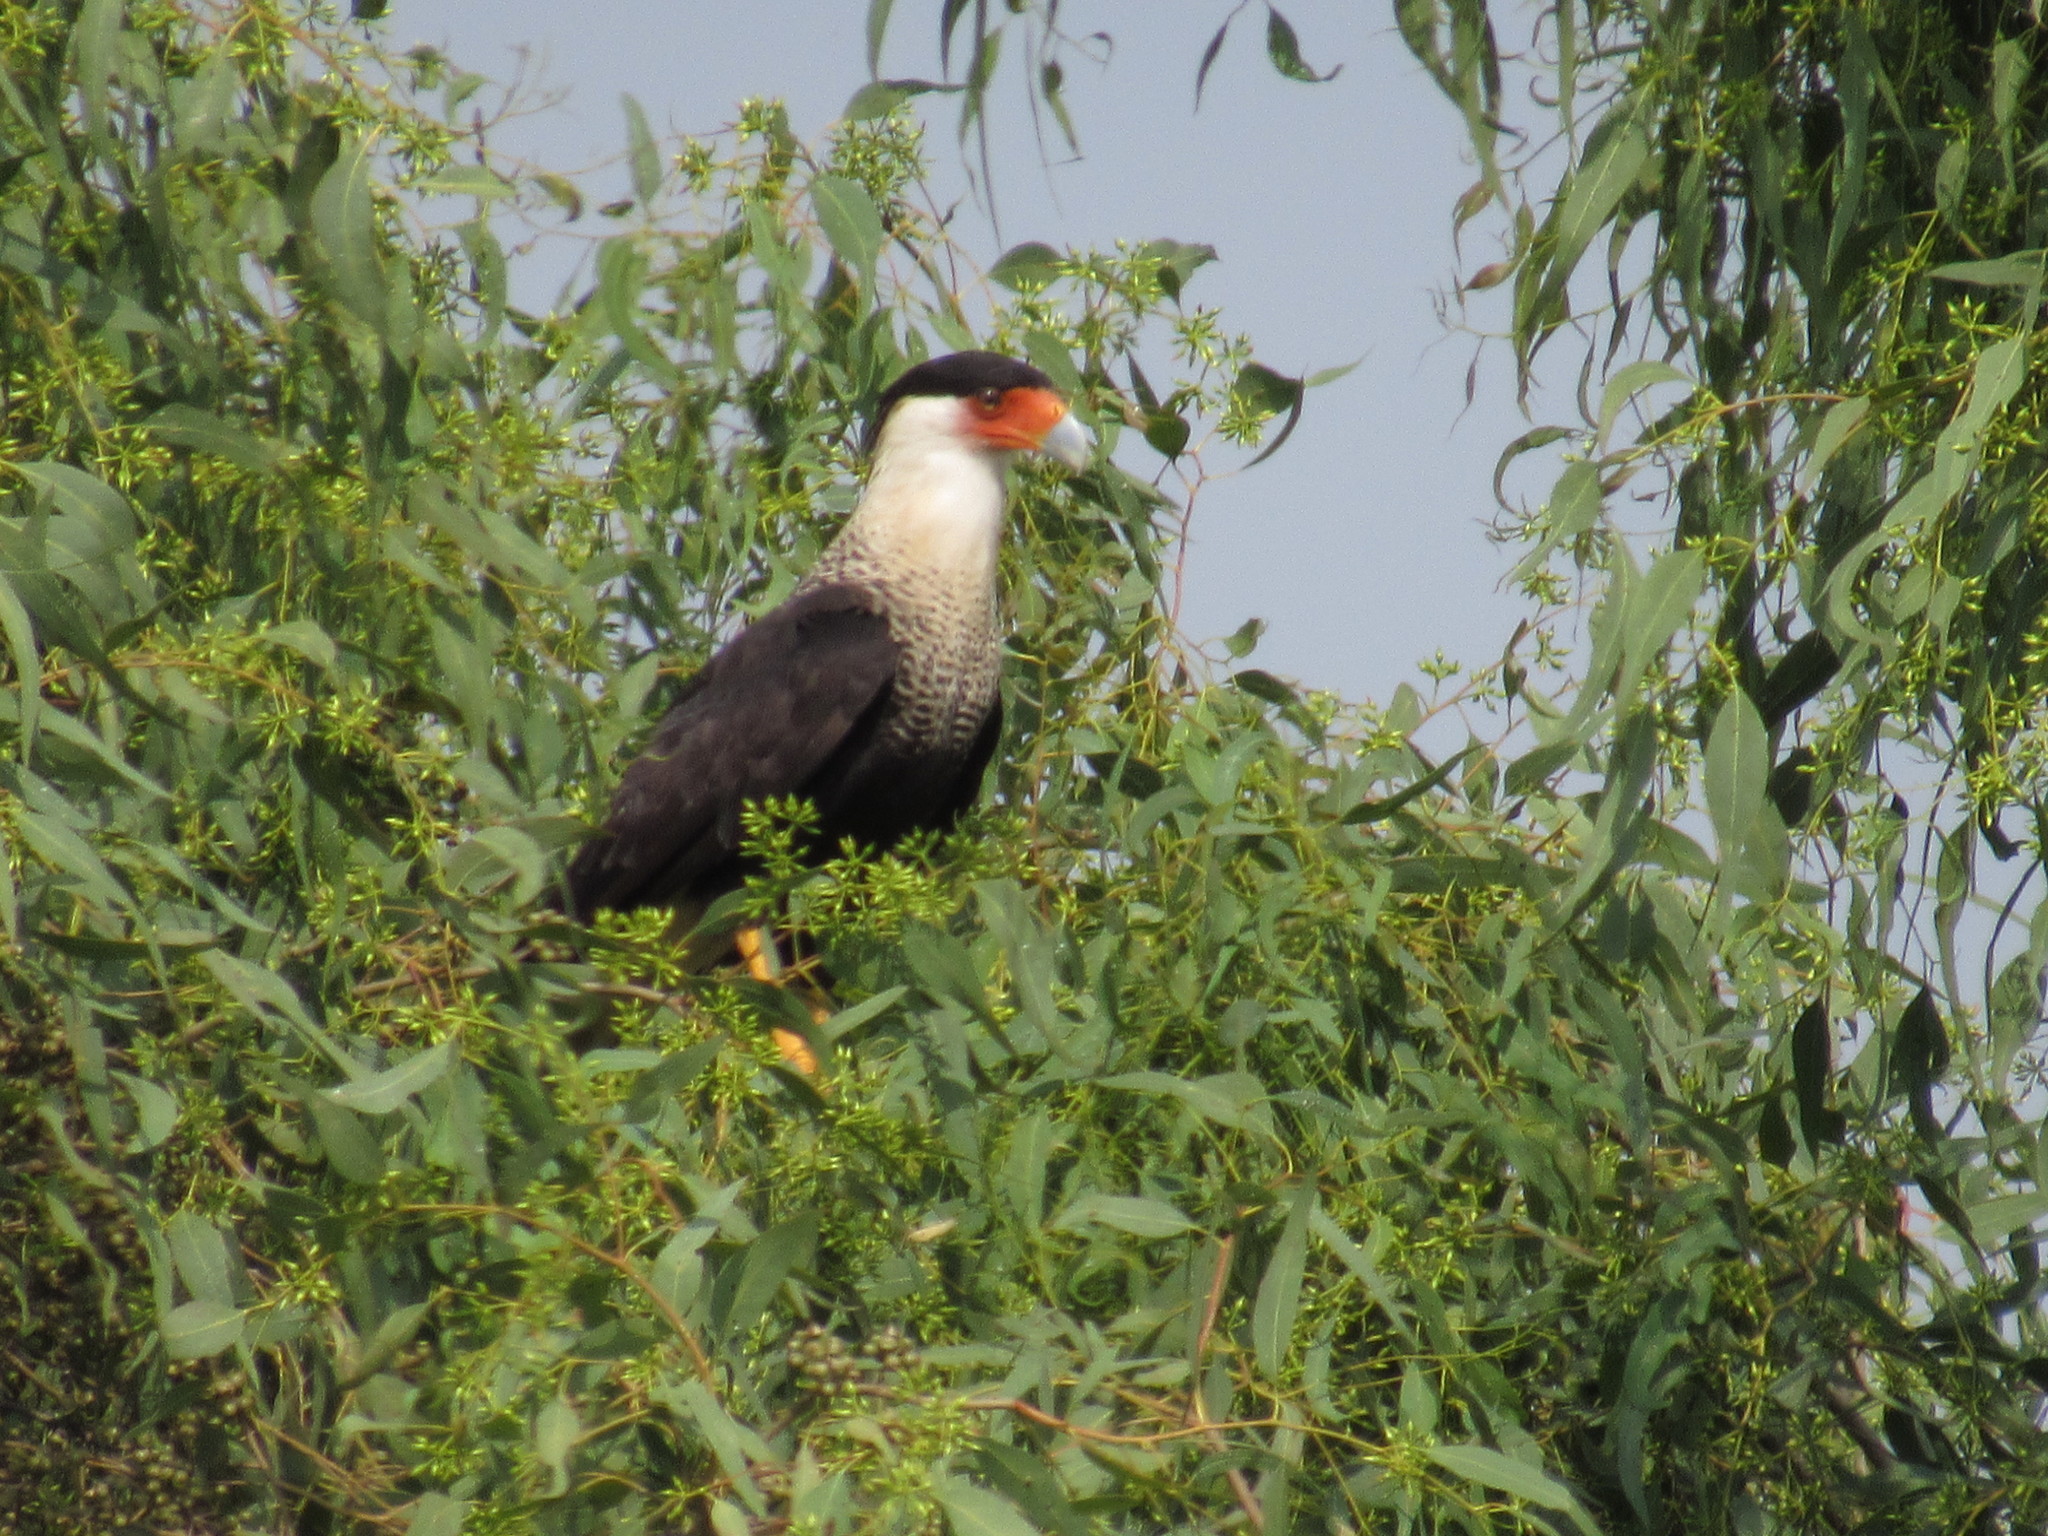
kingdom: Animalia
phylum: Chordata
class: Aves
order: Falconiformes
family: Falconidae
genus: Caracara
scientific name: Caracara plancus
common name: Southern caracara
